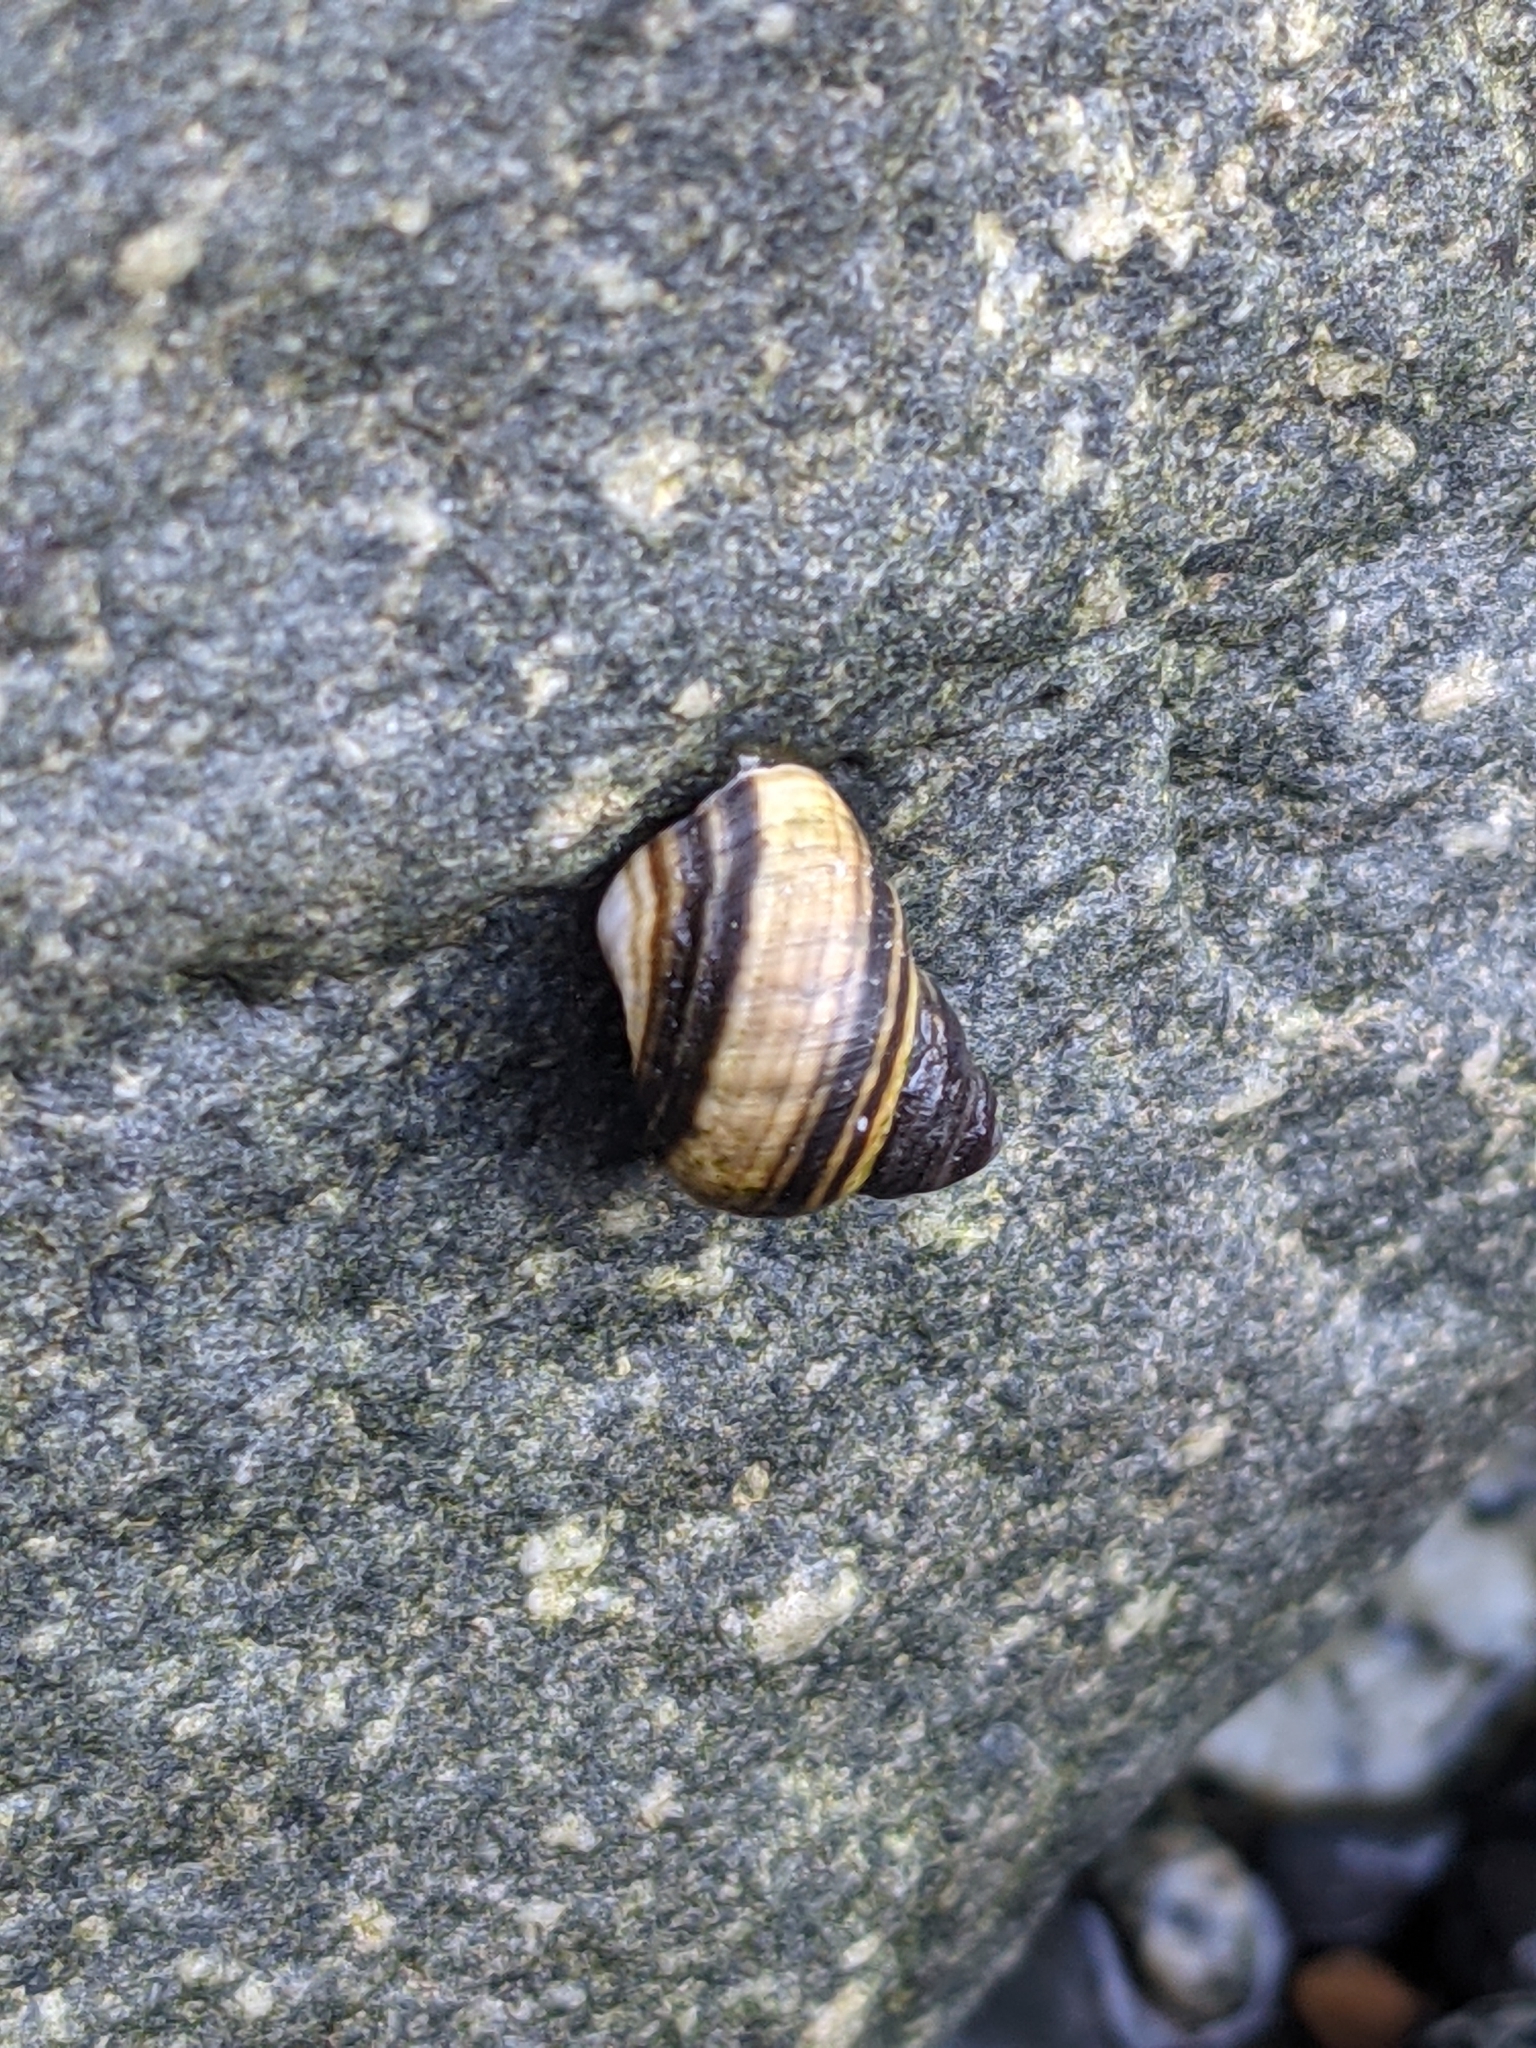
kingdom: Animalia
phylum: Mollusca
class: Gastropoda
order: Littorinimorpha
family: Littorinidae
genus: Littorina
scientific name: Littorina sitkana
